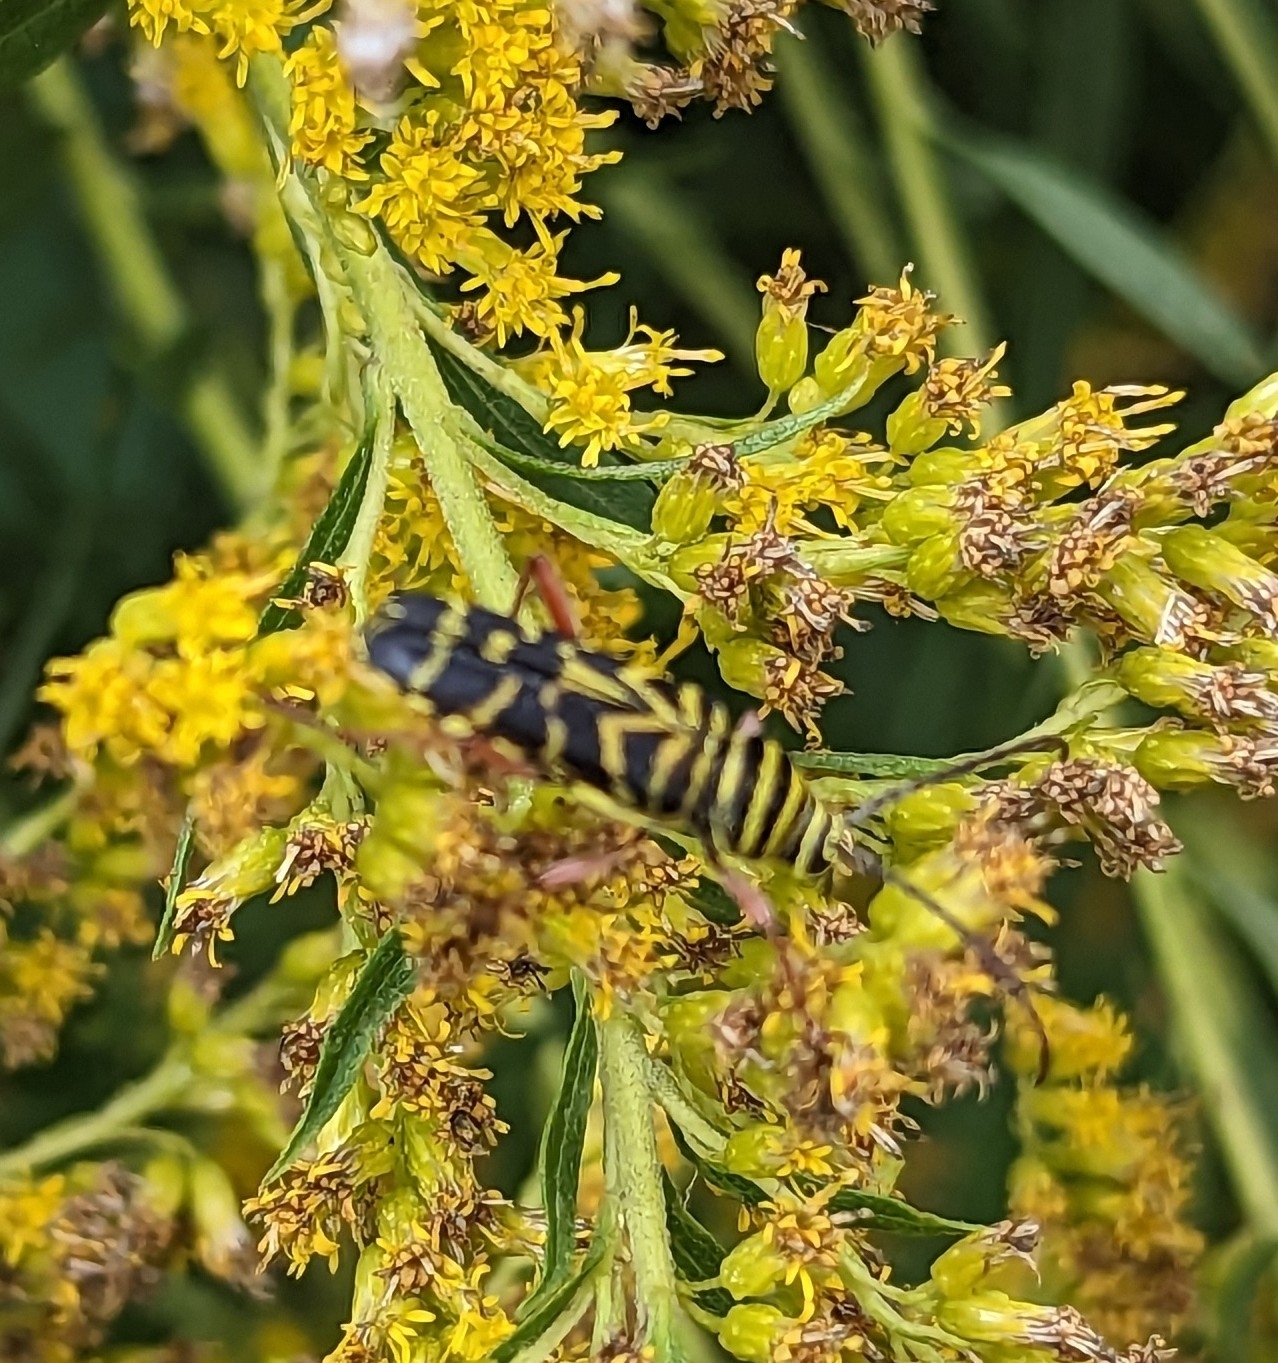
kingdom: Animalia
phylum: Arthropoda
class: Insecta
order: Coleoptera
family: Cerambycidae
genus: Megacyllene
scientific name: Megacyllene robiniae
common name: Locust borer
